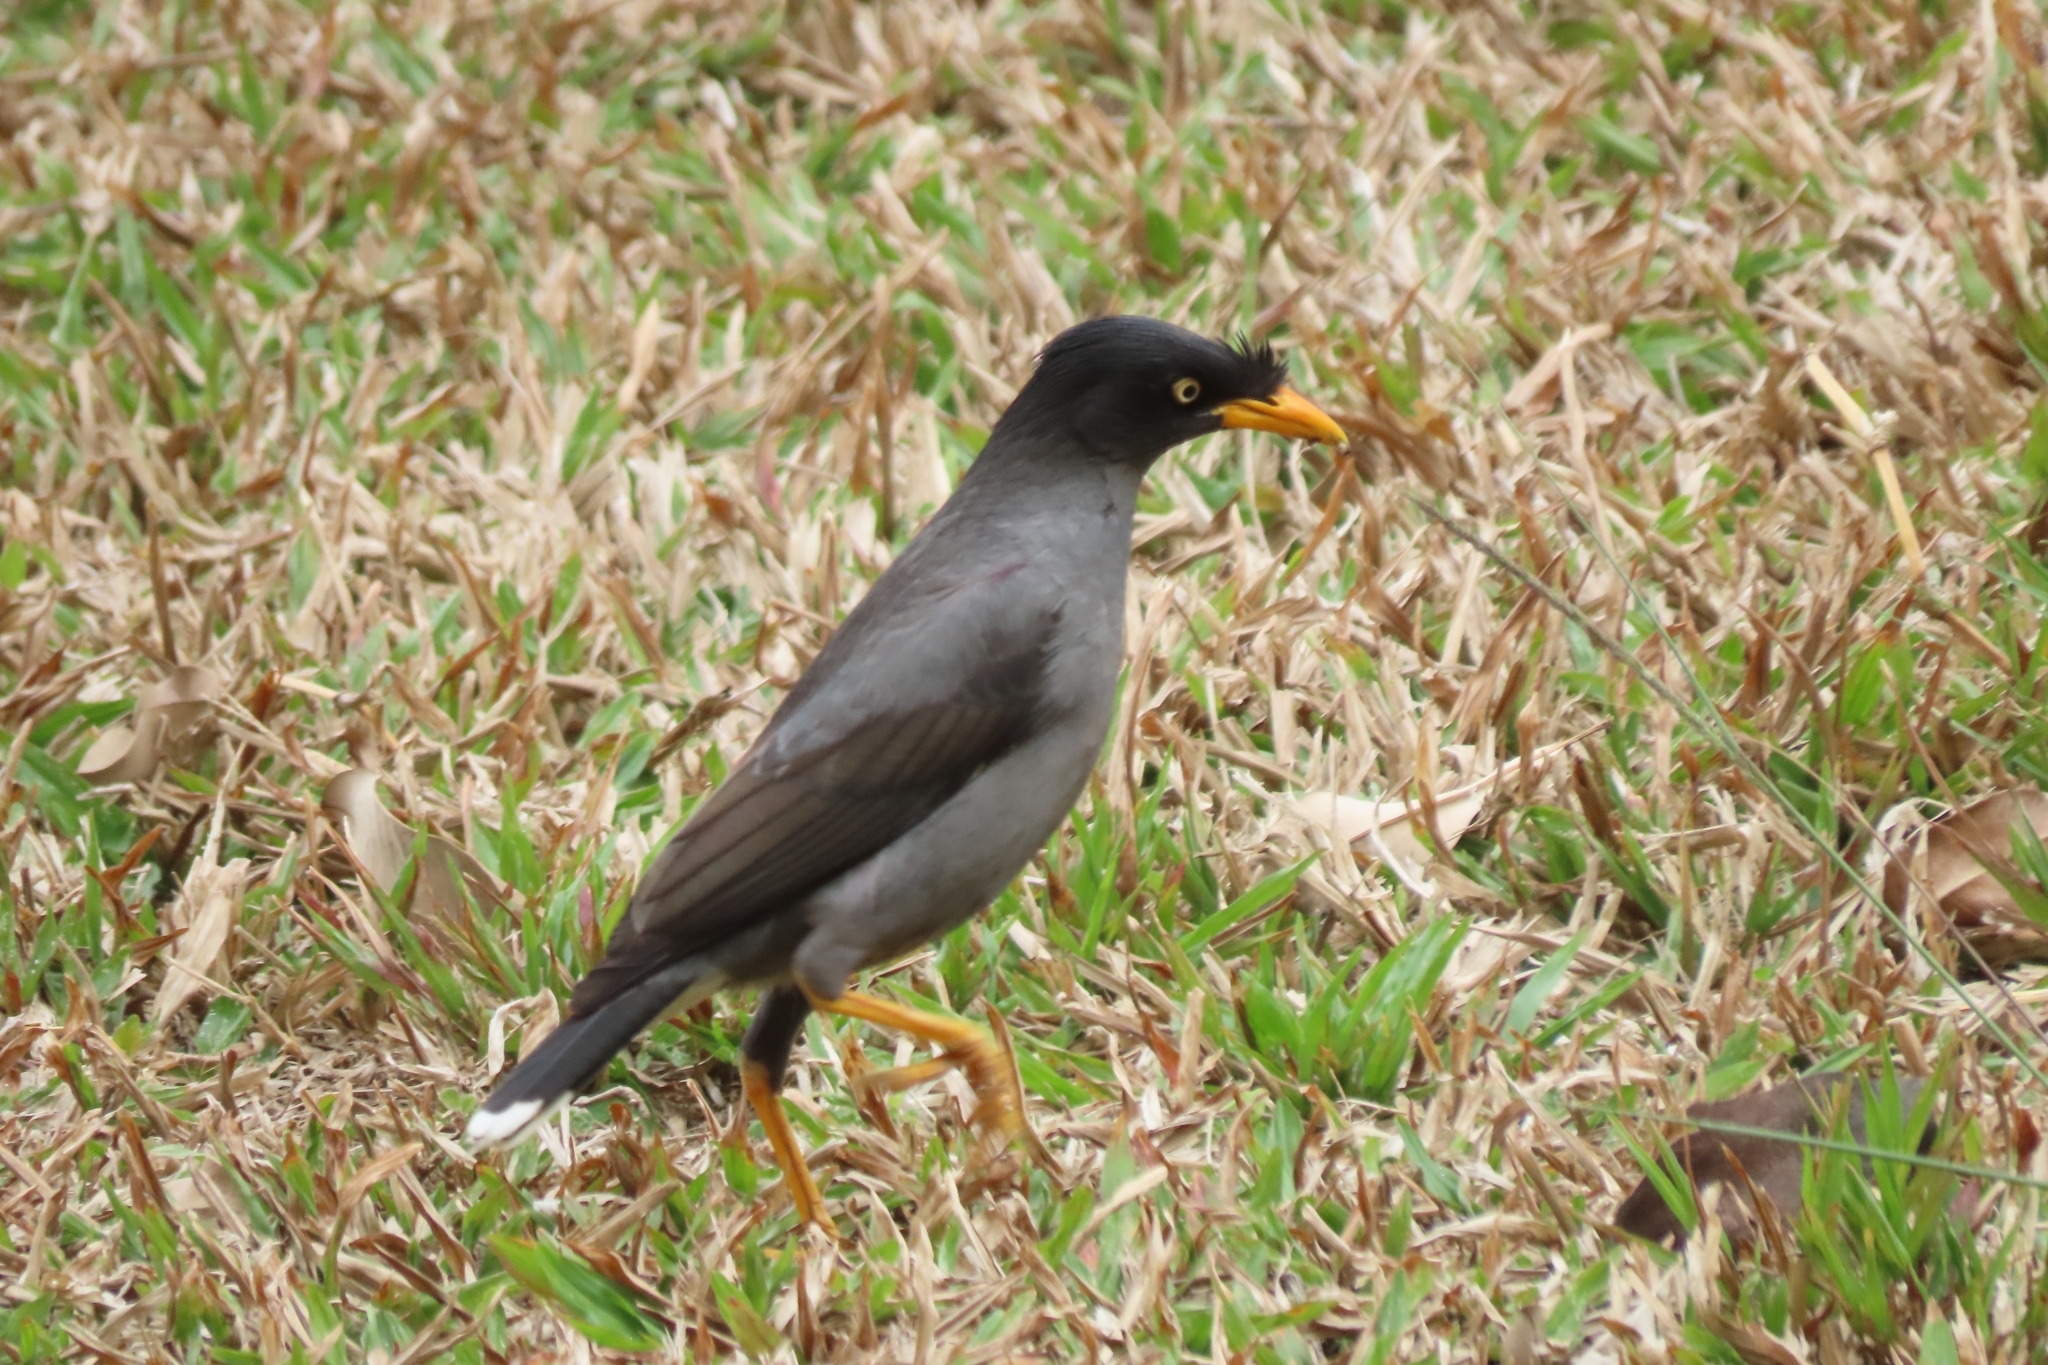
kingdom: Animalia
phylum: Chordata
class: Aves
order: Passeriformes
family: Sturnidae
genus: Acridotheres
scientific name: Acridotheres javanicus
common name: Javan myna
